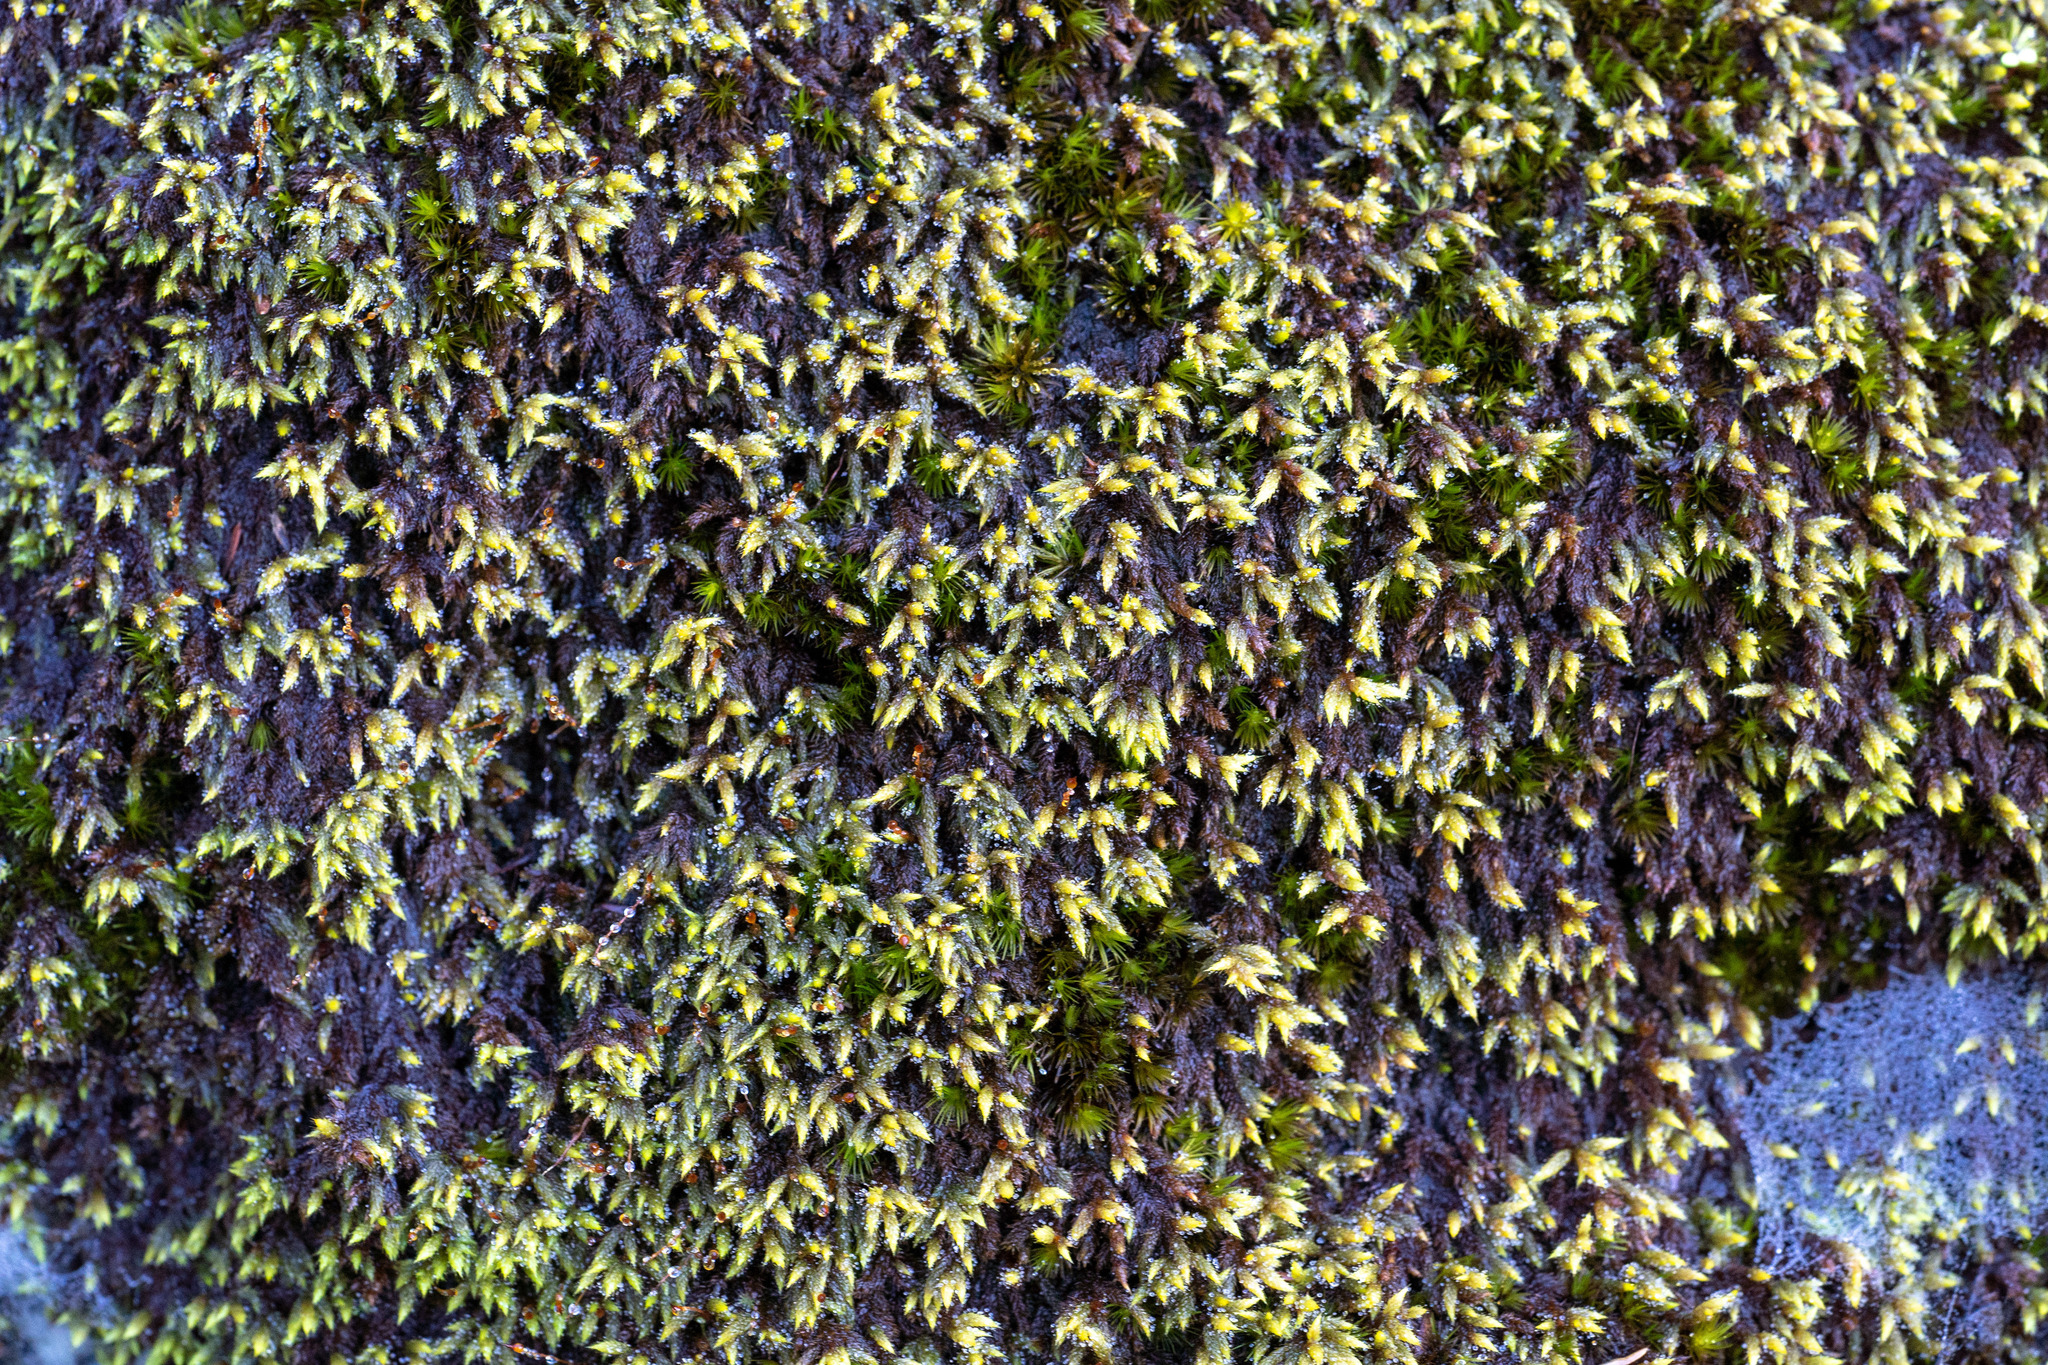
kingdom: Plantae
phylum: Bryophyta
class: Bryopsida
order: Hedwigiales
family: Hedwigiaceae
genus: Rhacocarpus
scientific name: Rhacocarpus purpurascens
